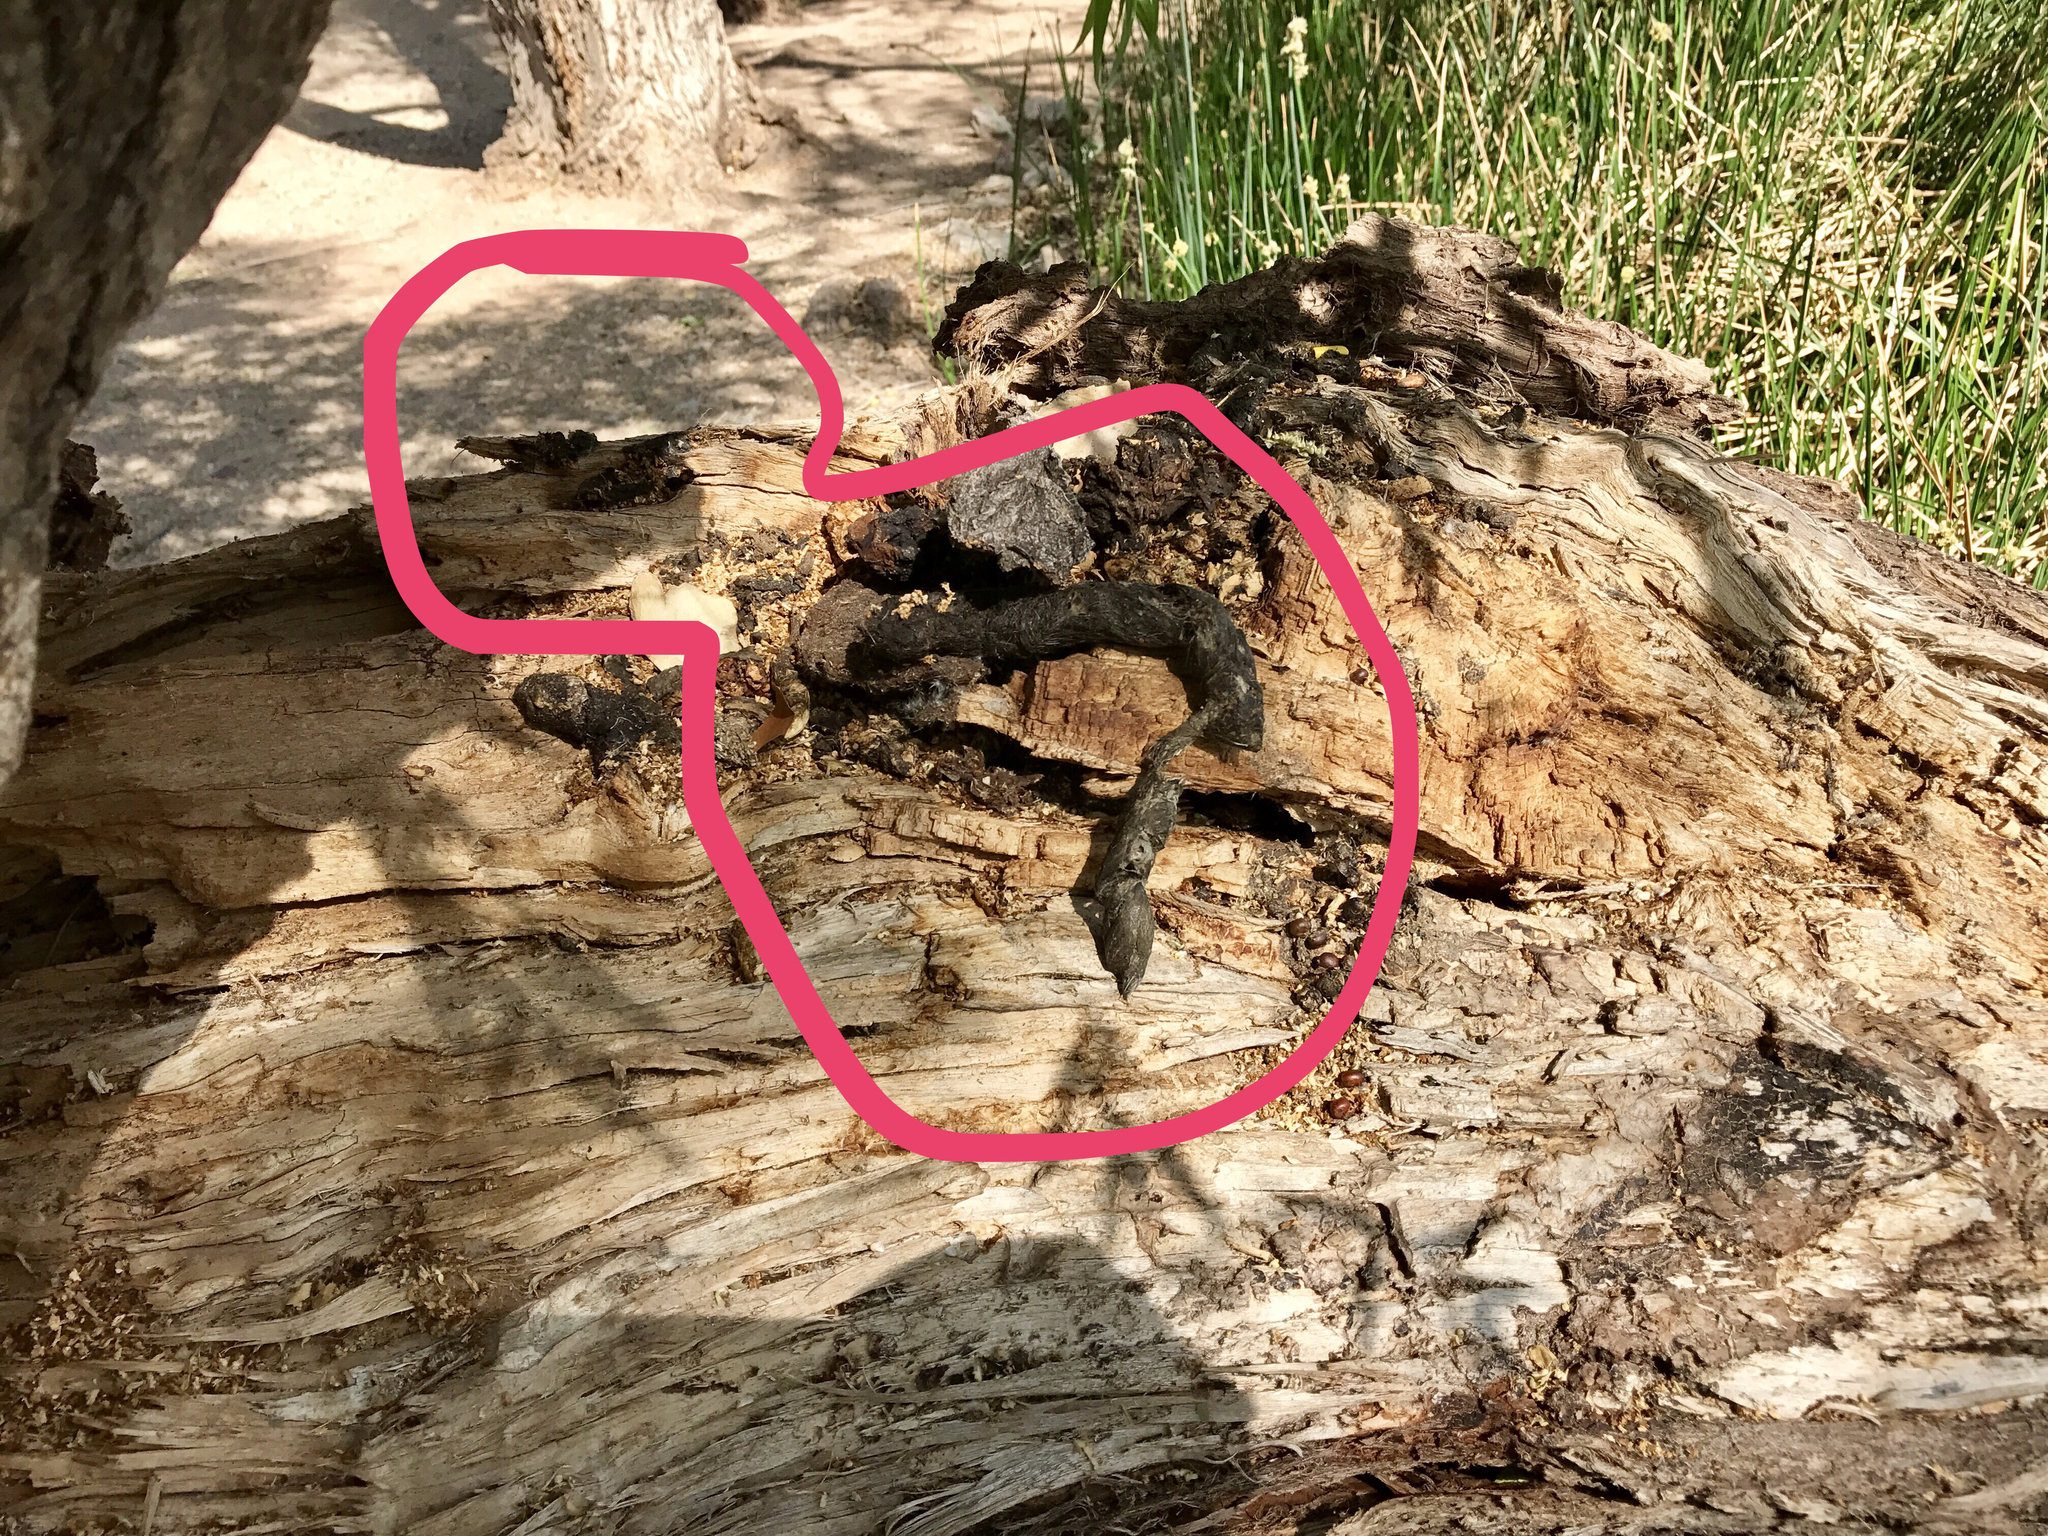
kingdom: Animalia
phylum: Chordata
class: Mammalia
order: Carnivora
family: Felidae
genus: Lynx
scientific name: Lynx rufus
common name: Bobcat
